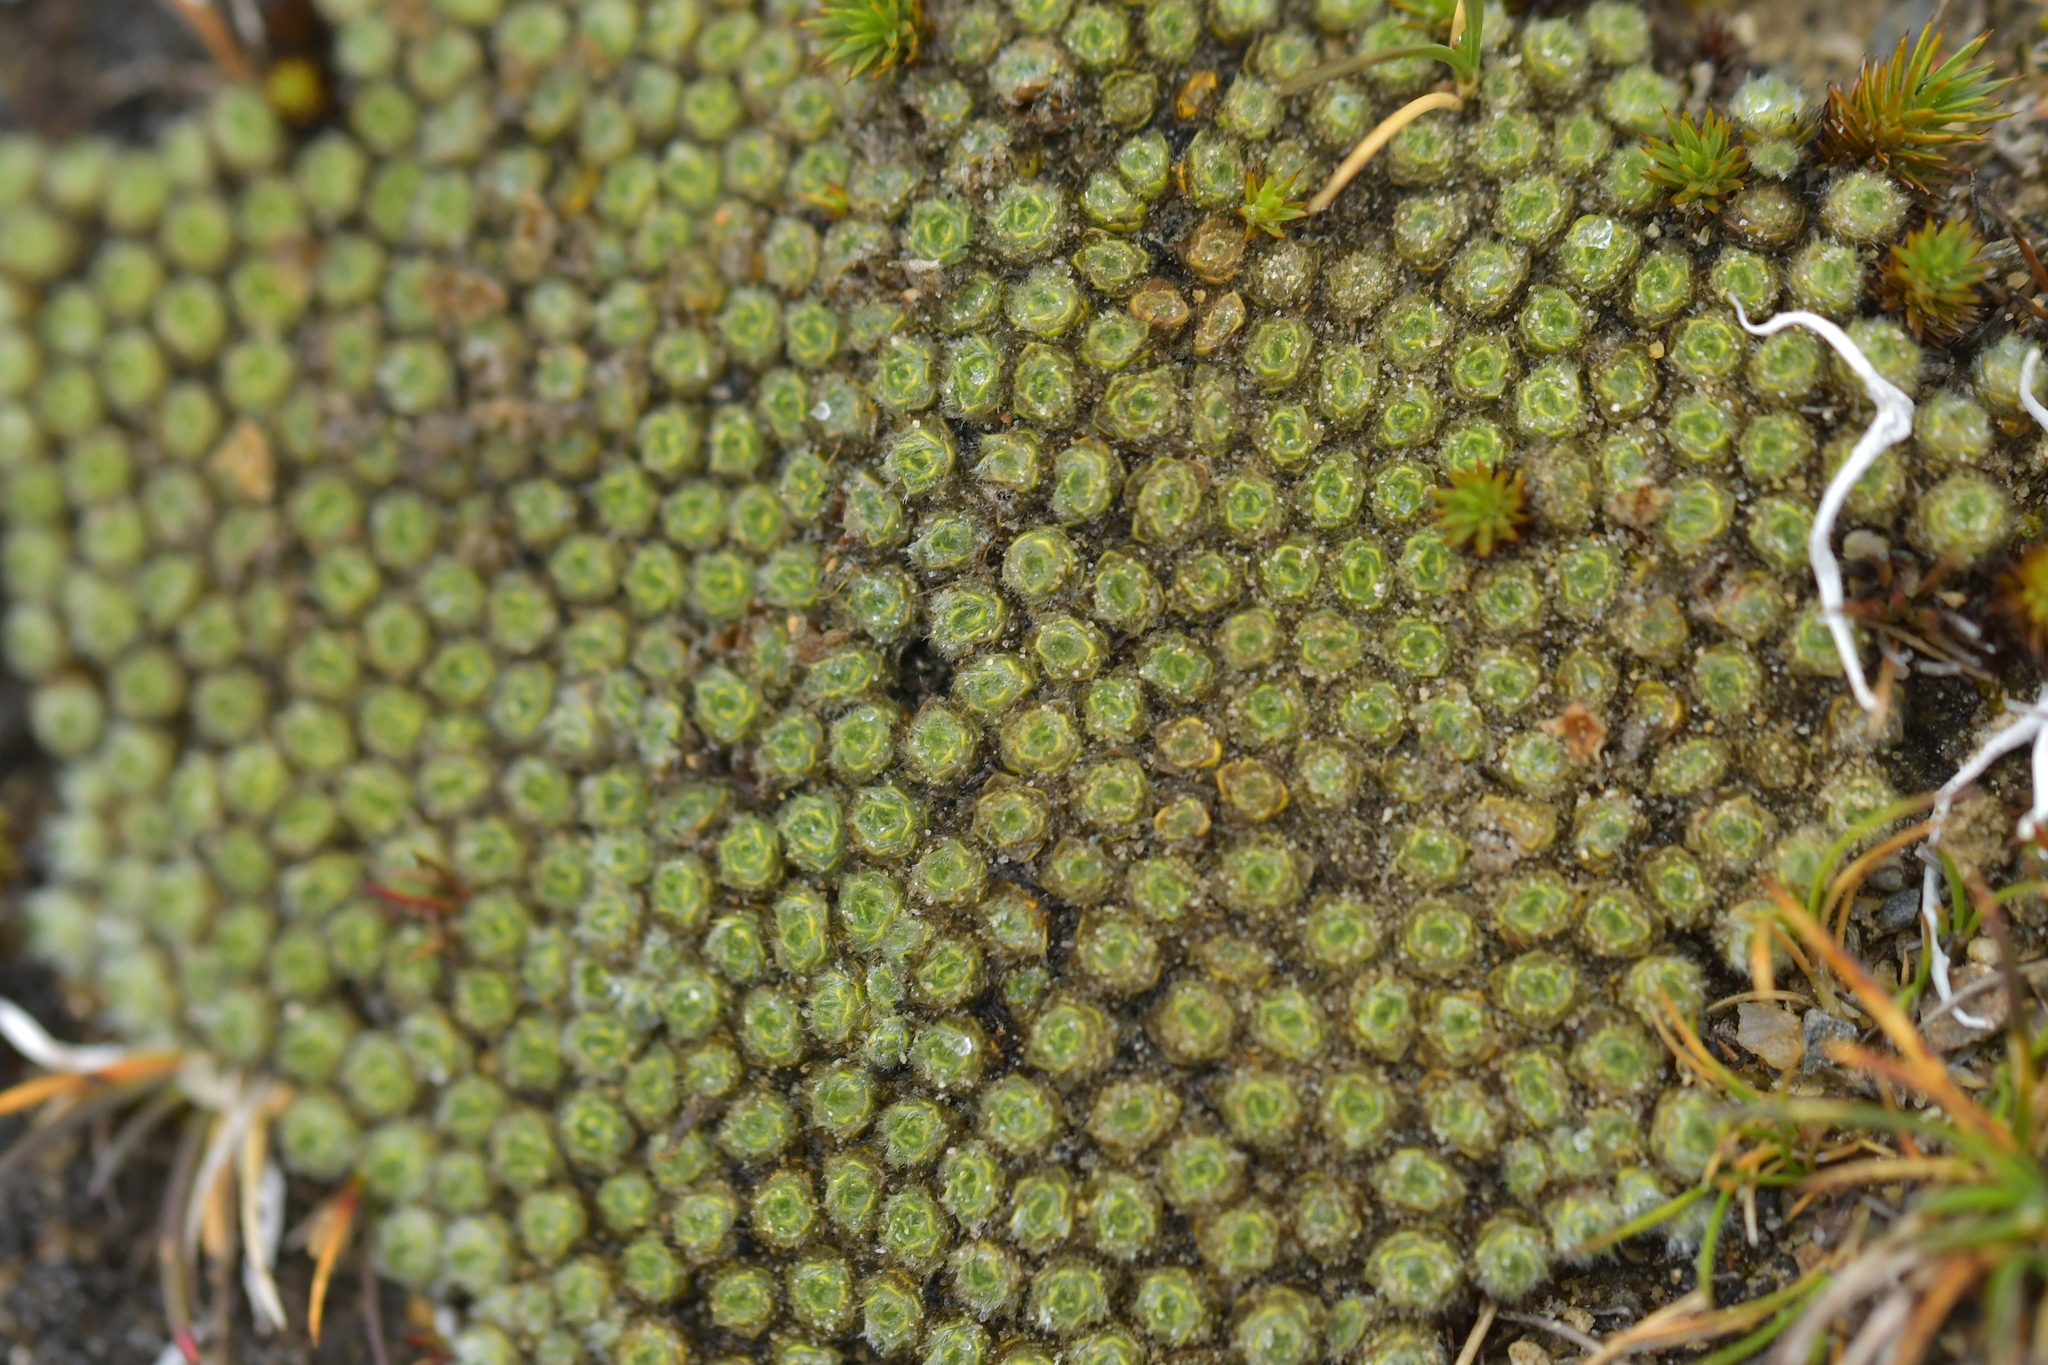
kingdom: Plantae
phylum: Tracheophyta
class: Magnoliopsida
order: Lamiales
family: Plantaginaceae
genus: Veronica
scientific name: Veronica thomsonii
